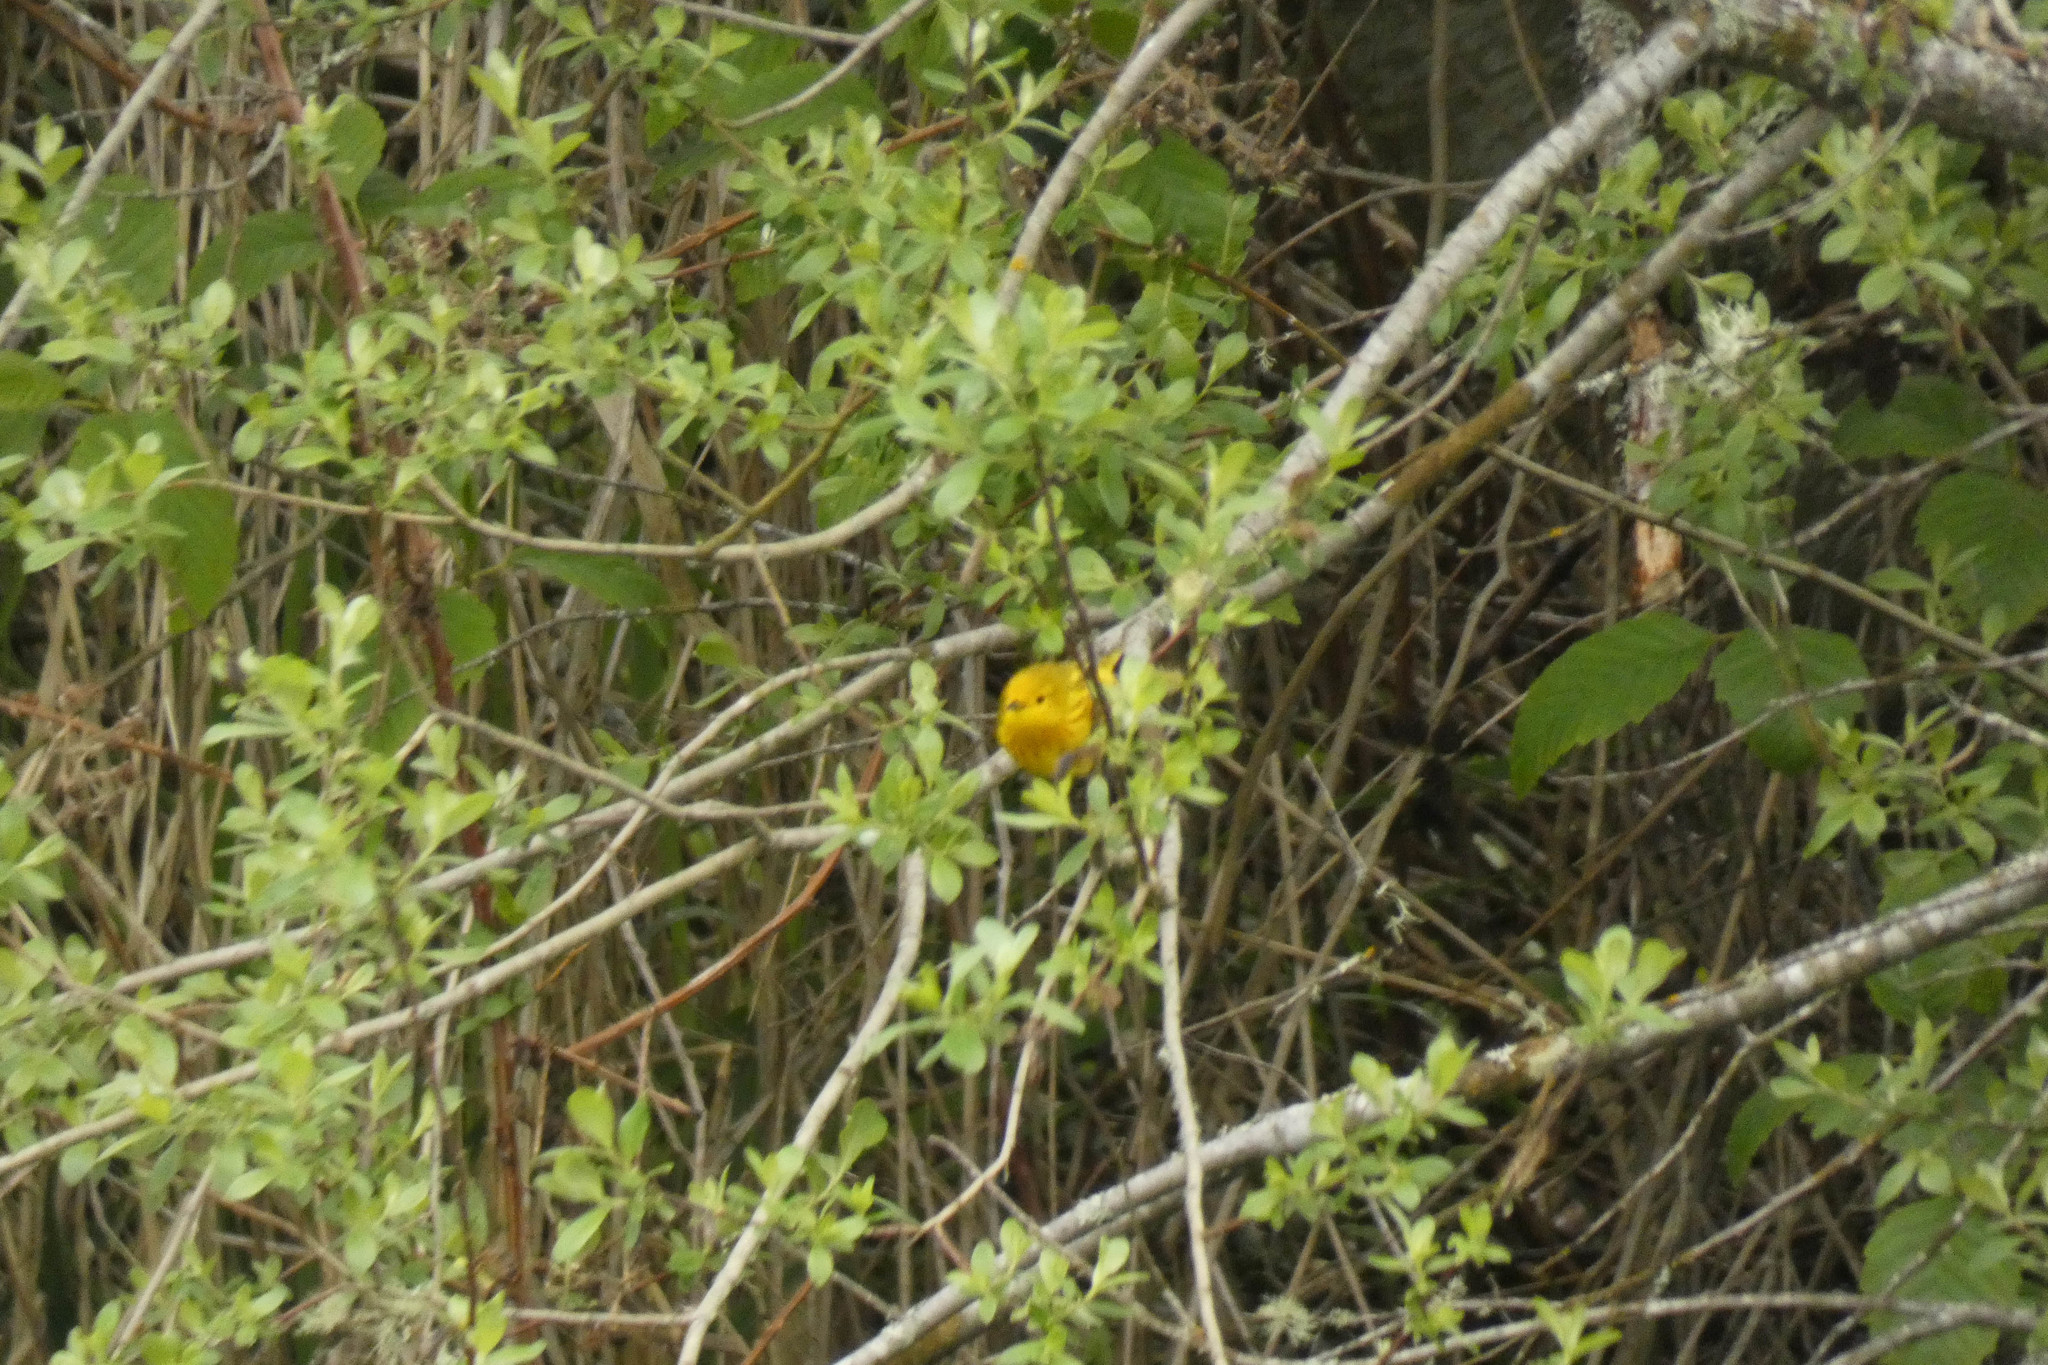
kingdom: Animalia
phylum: Chordata
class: Aves
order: Passeriformes
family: Parulidae
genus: Setophaga
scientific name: Setophaga petechia
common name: Yellow warbler
